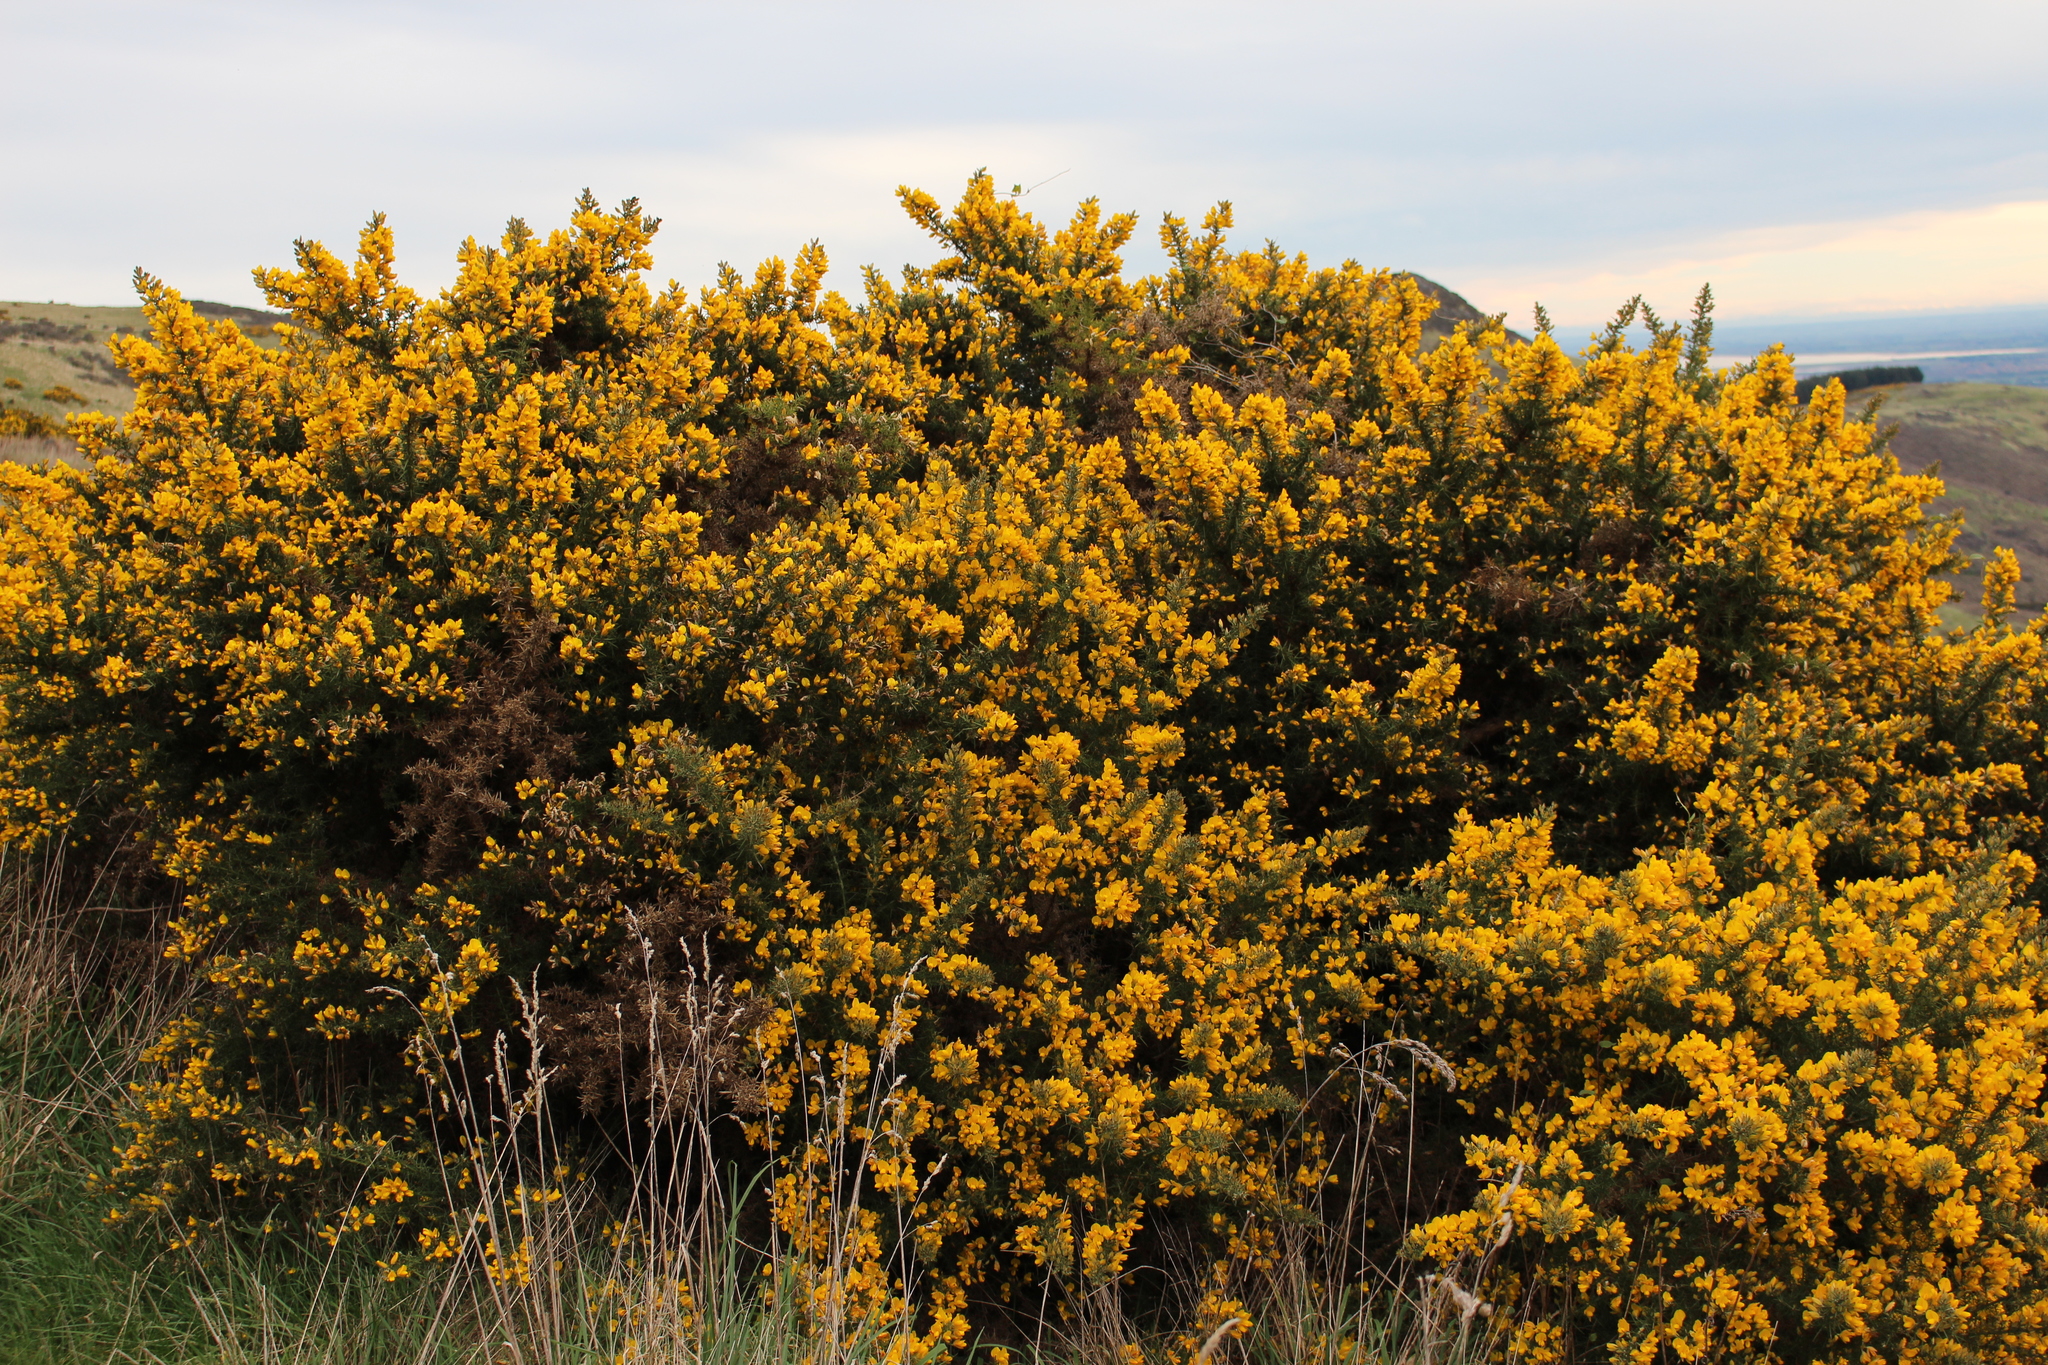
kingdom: Plantae
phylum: Tracheophyta
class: Magnoliopsida
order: Fabales
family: Fabaceae
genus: Ulex
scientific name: Ulex europaeus
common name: Common gorse
